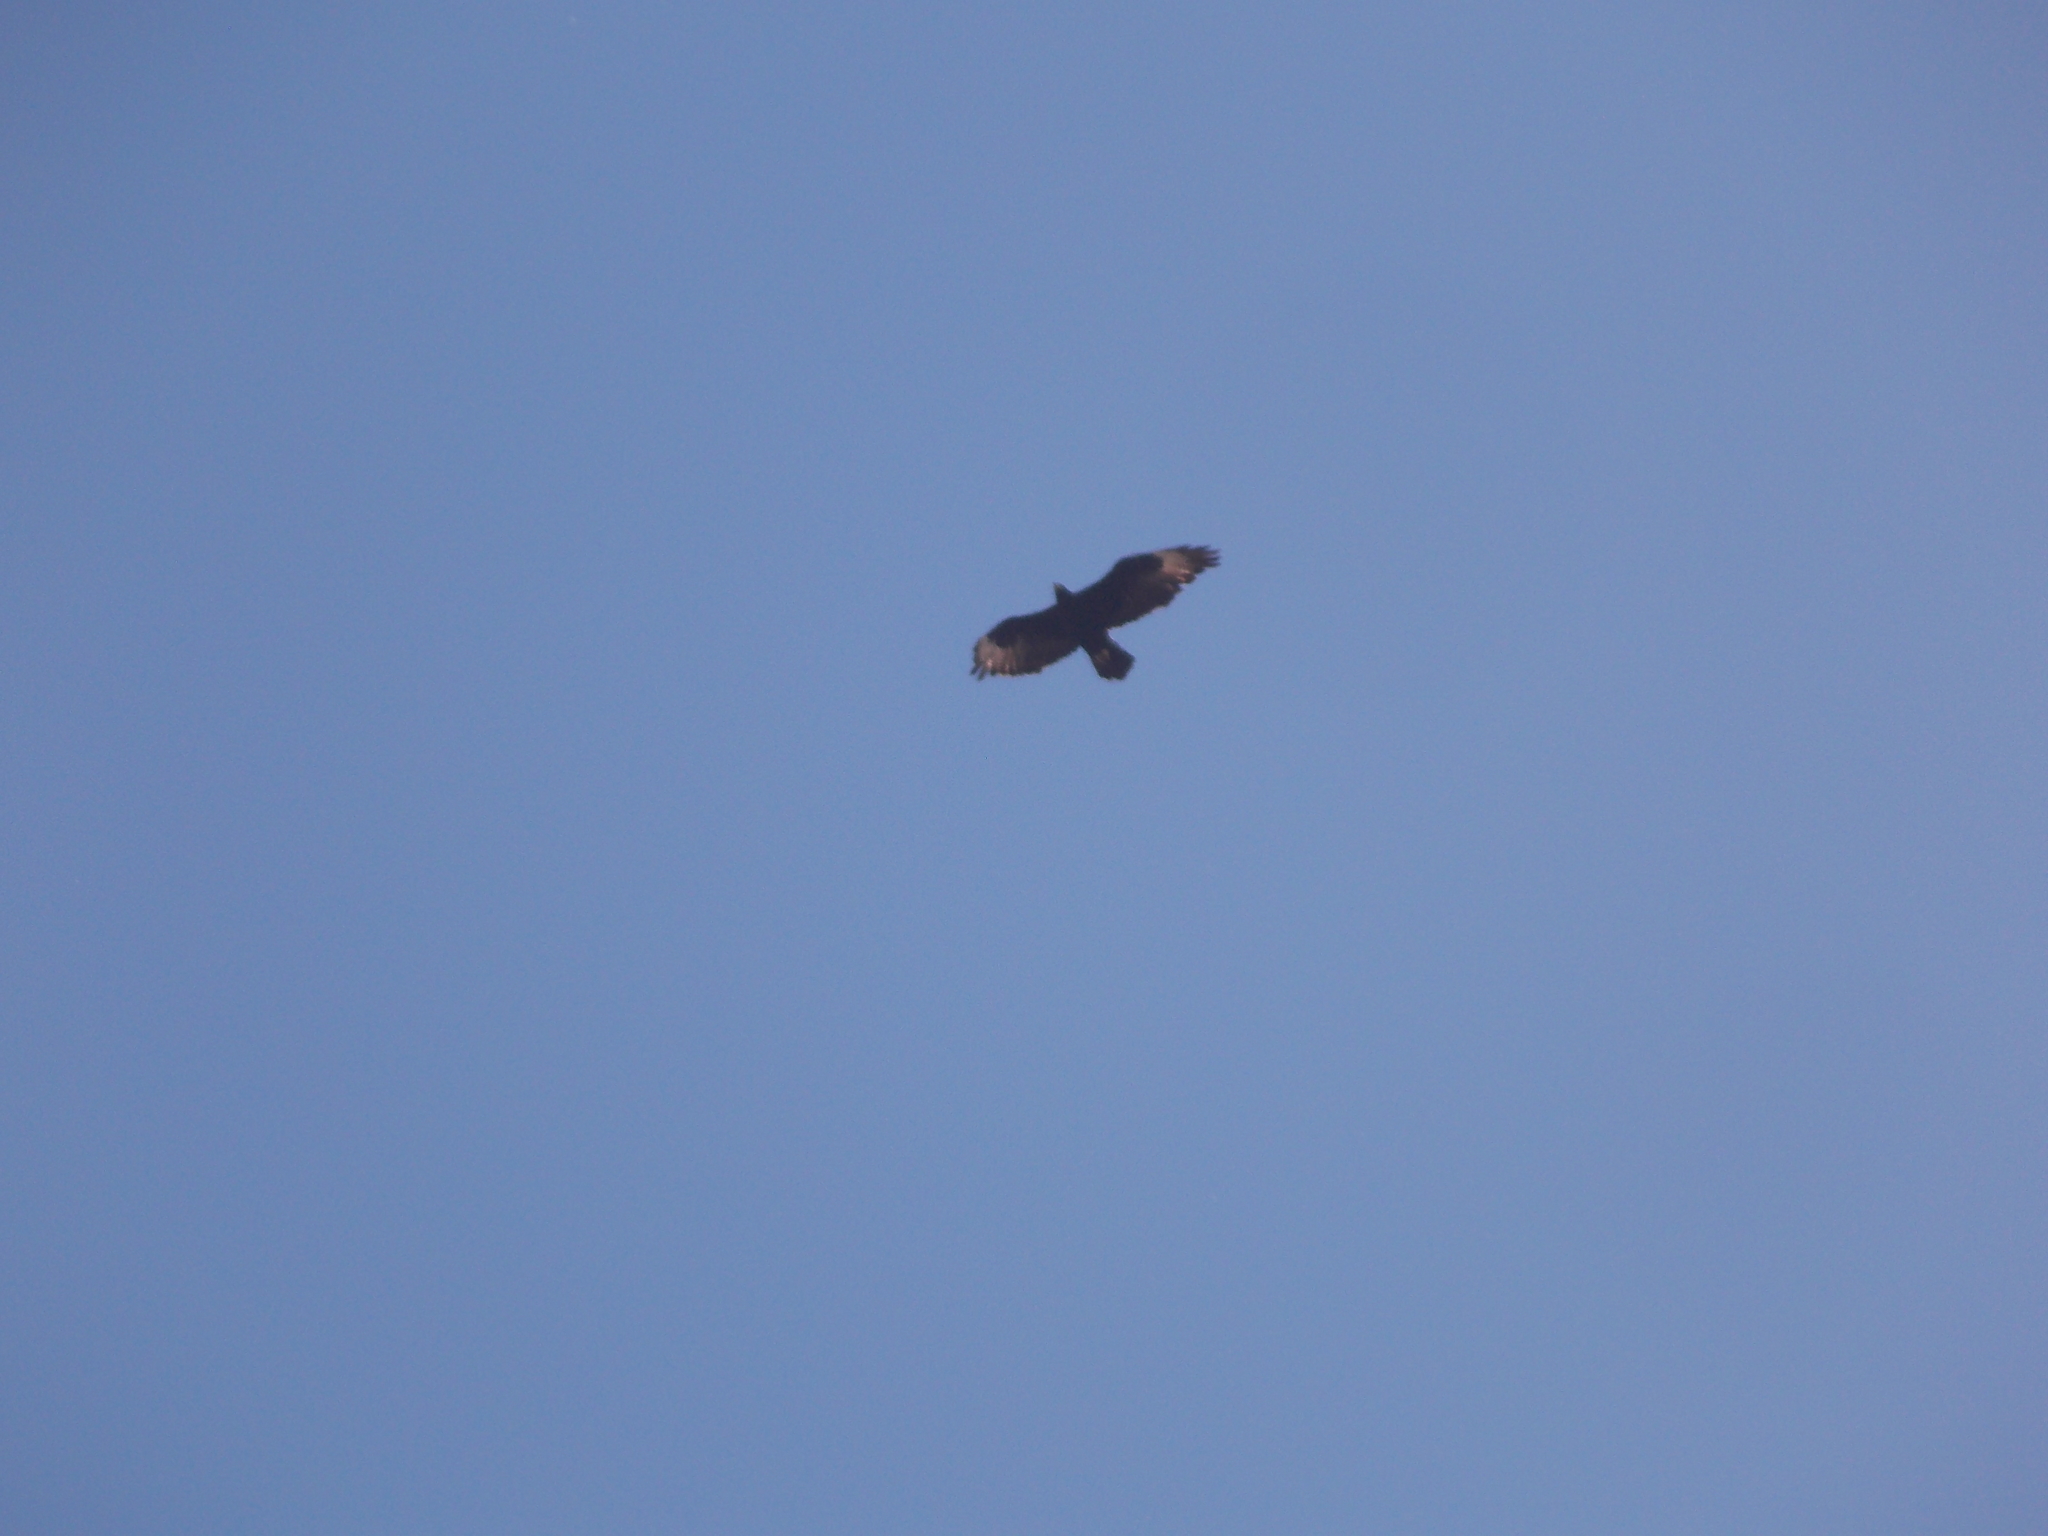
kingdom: Animalia
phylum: Chordata
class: Aves
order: Accipitriformes
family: Accipitridae
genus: Aquila
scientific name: Aquila verreauxii
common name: Verreaux's eagle
